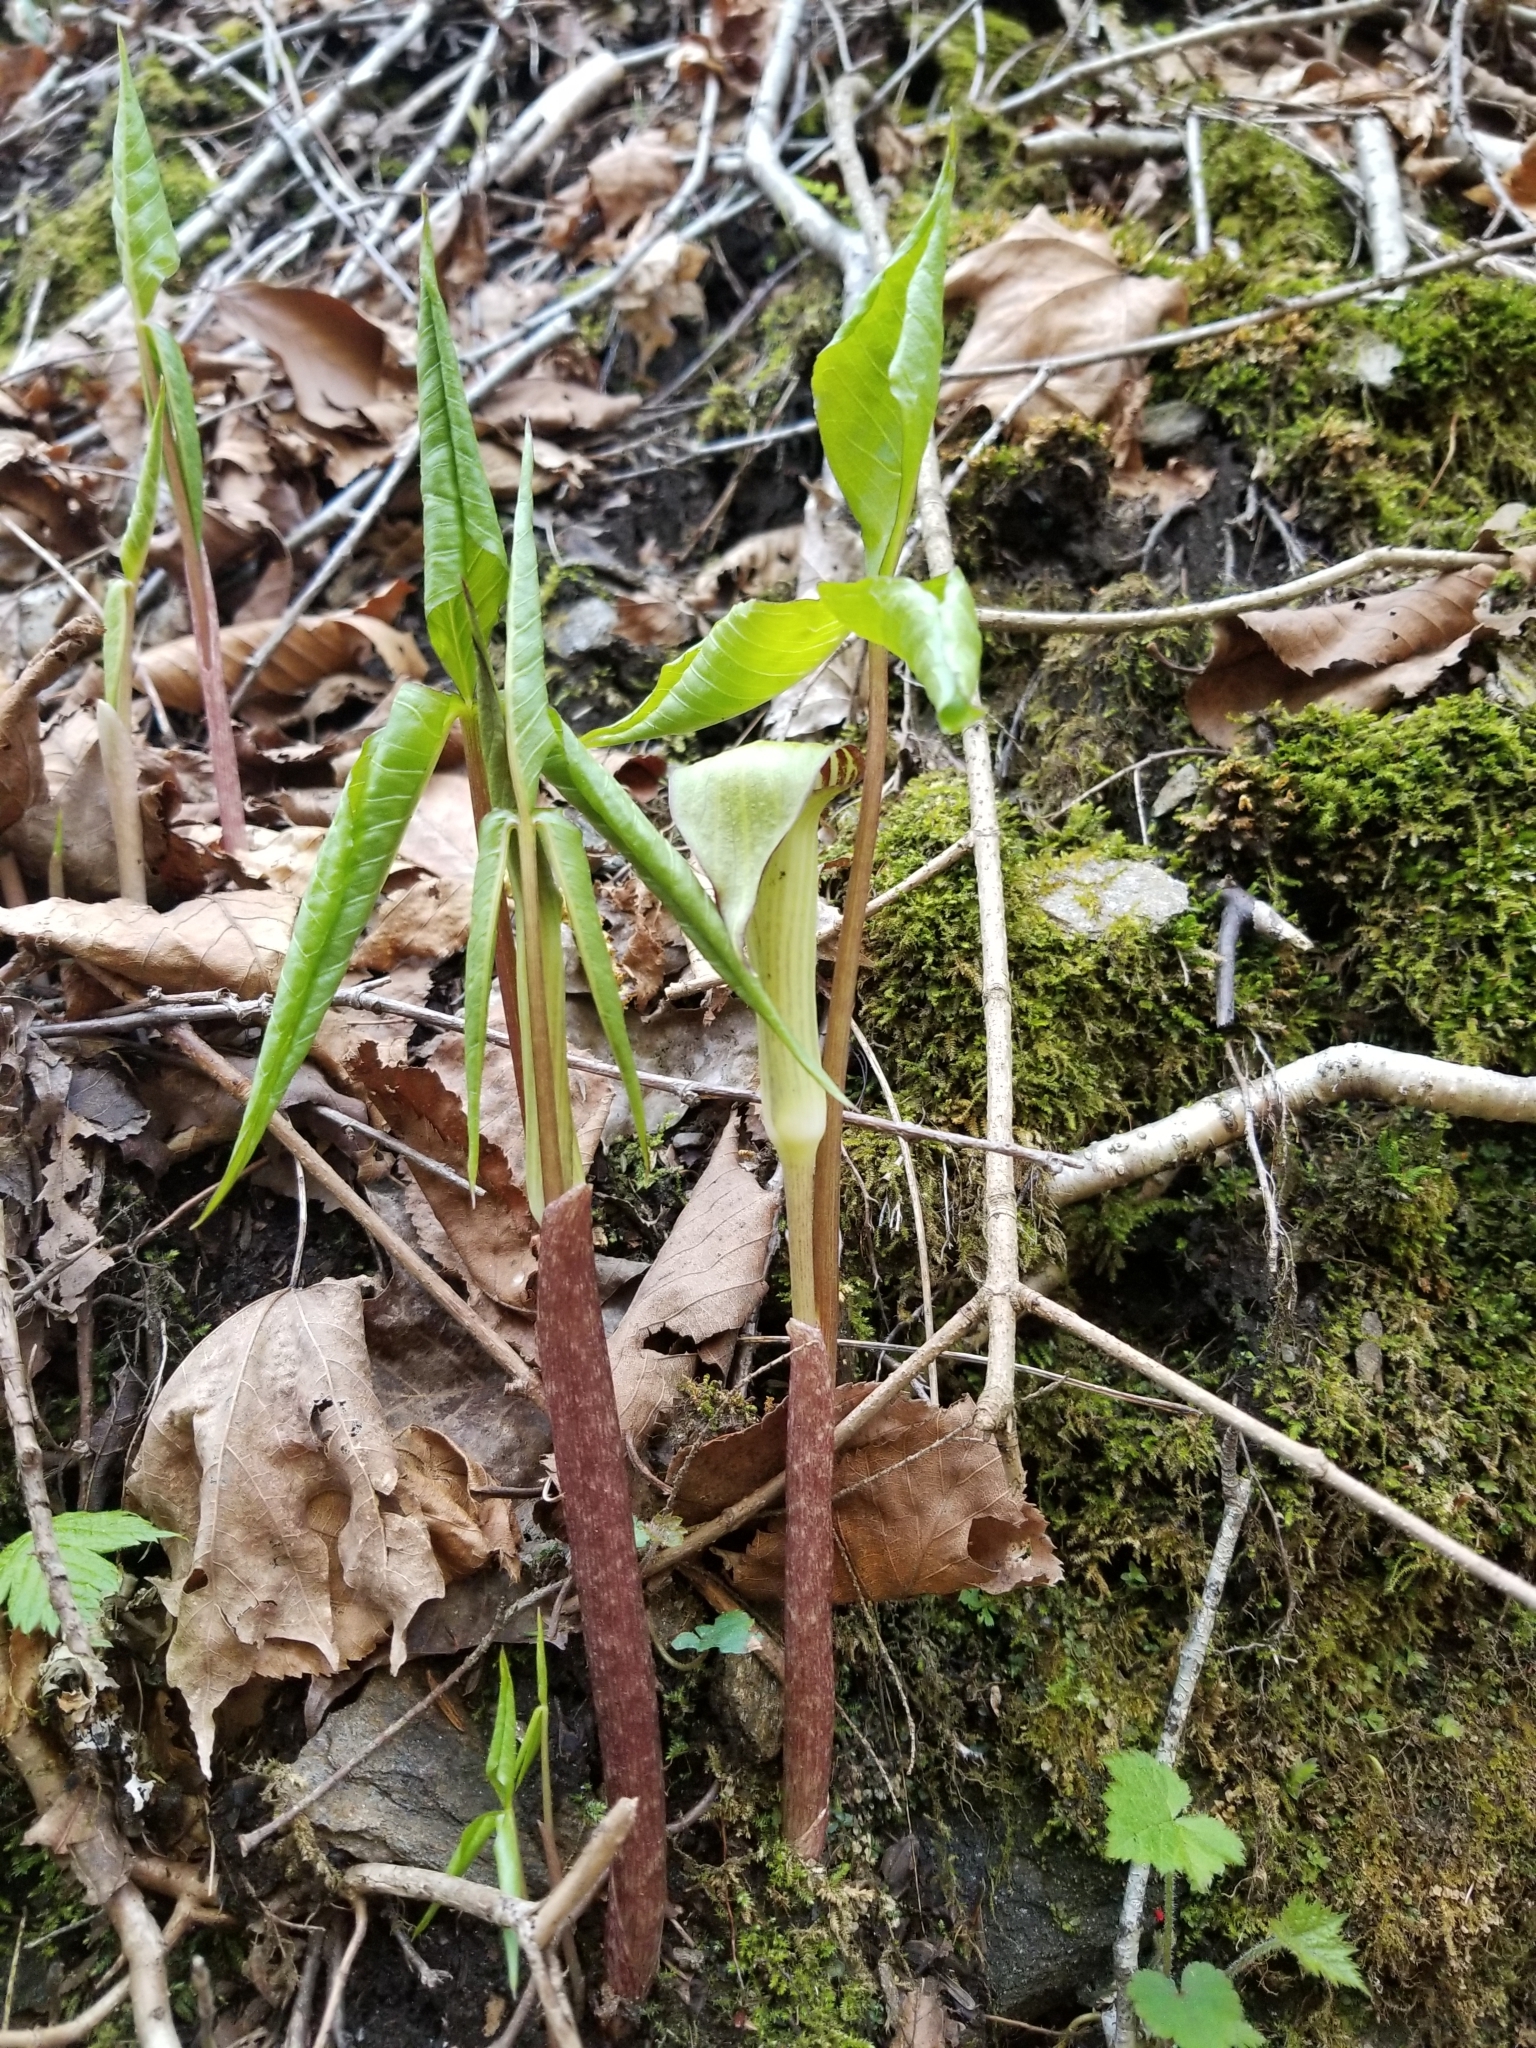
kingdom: Plantae
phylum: Tracheophyta
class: Liliopsida
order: Alismatales
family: Araceae
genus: Arisaema
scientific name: Arisaema triphyllum
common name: Jack-in-the-pulpit
